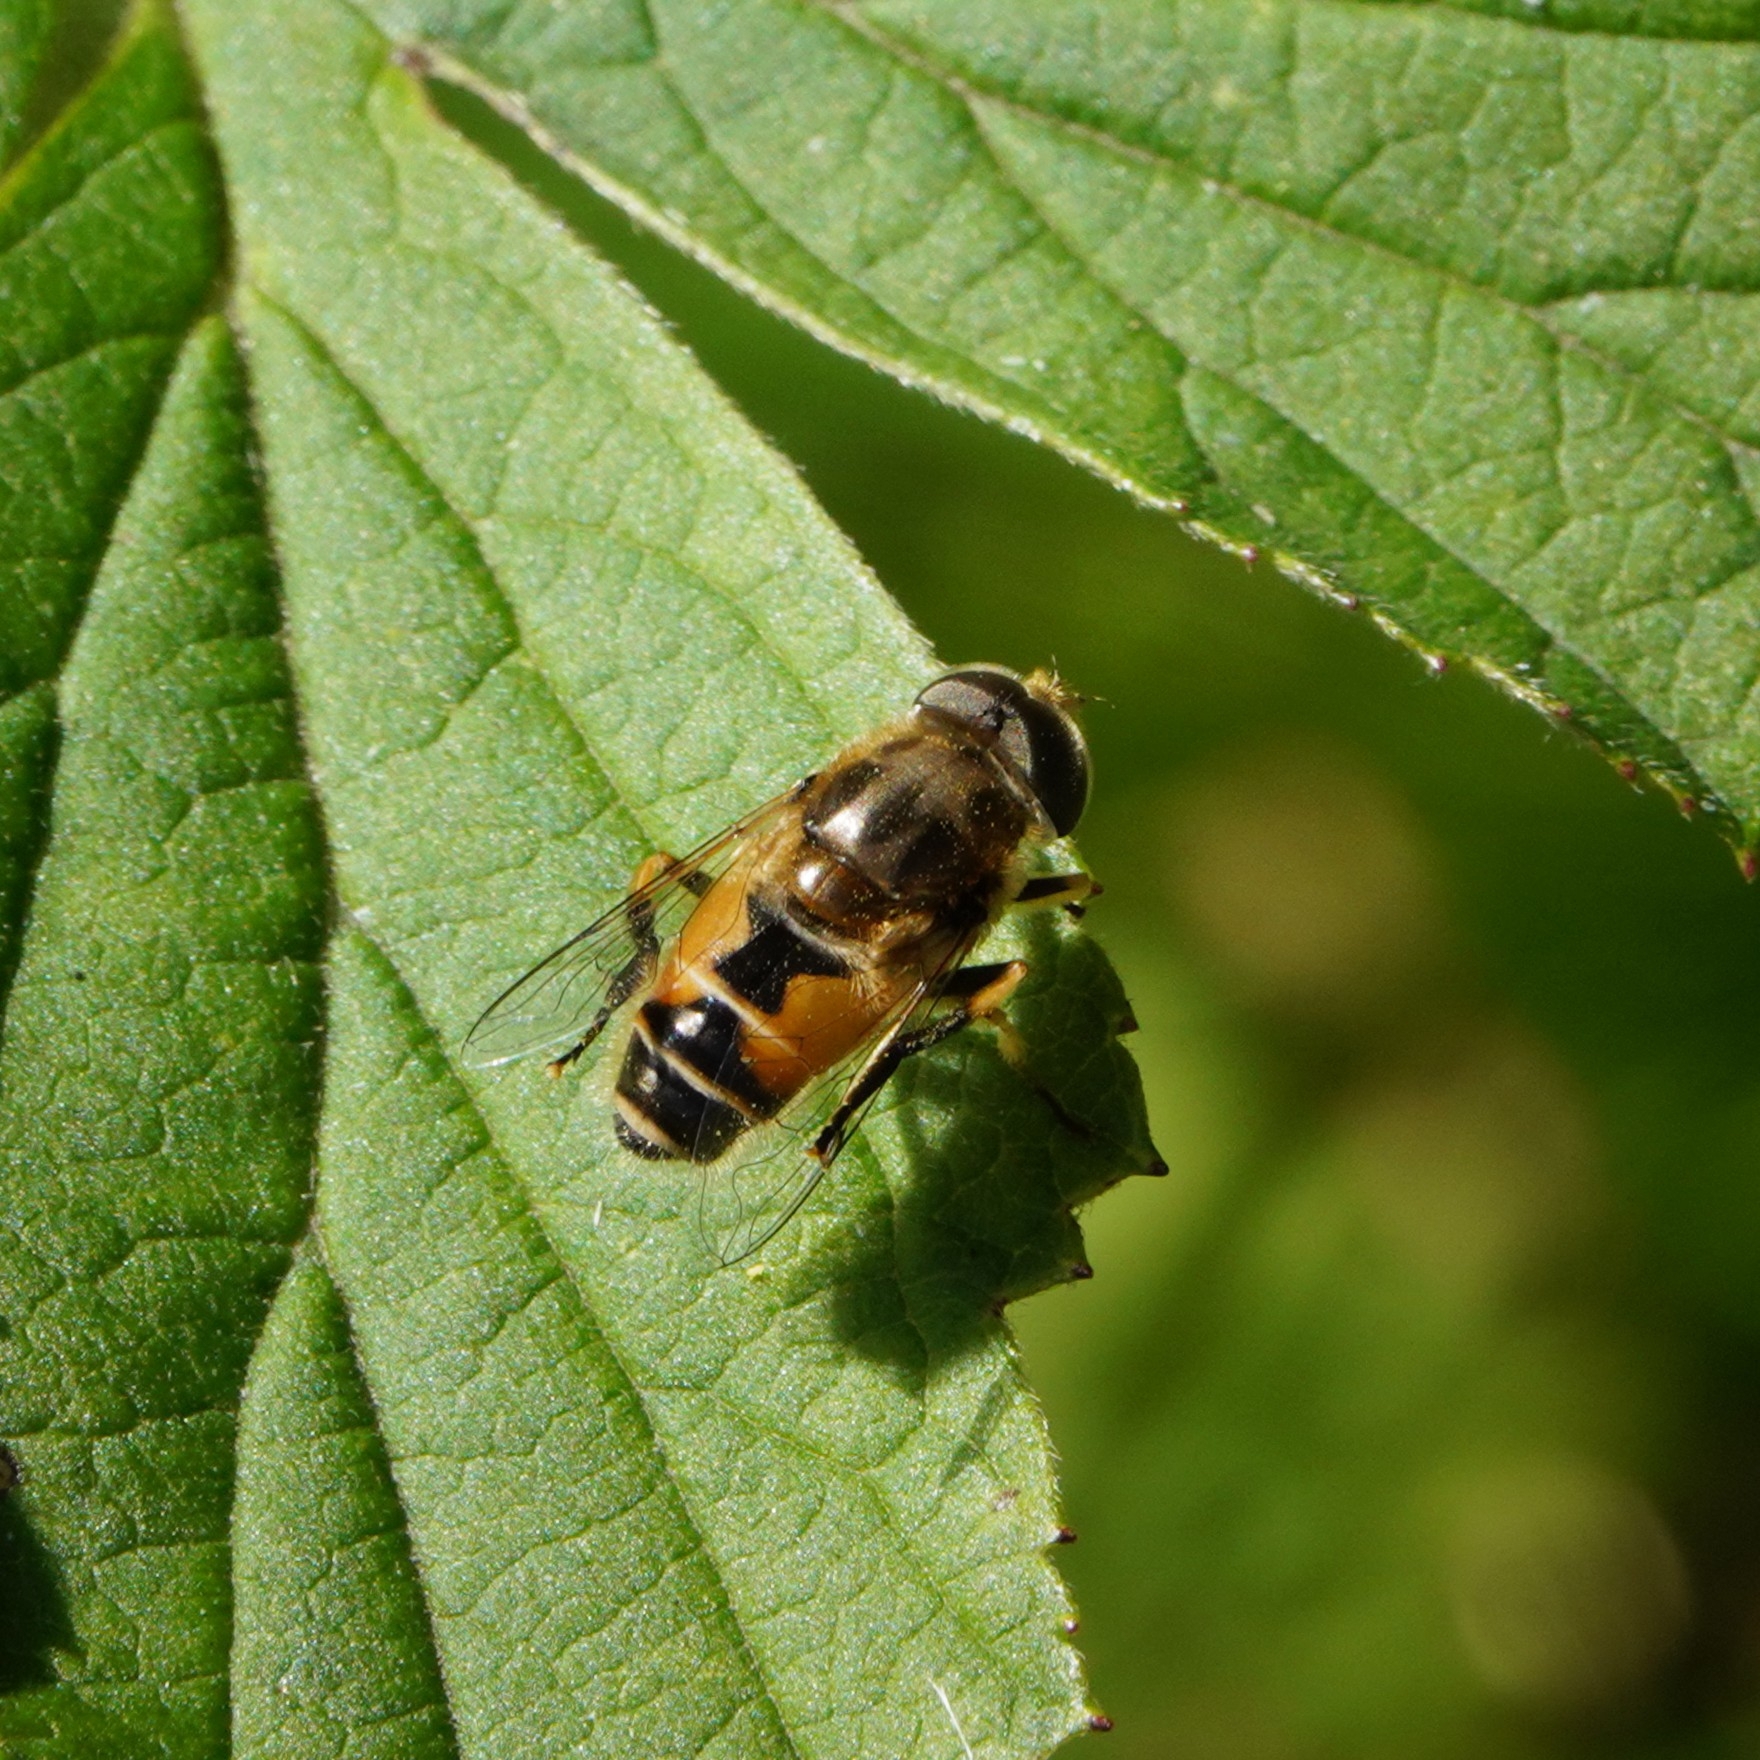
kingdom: Animalia
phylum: Arthropoda
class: Insecta
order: Diptera
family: Syrphidae
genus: Eristalis
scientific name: Eristalis arbustorum
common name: Hover fly
